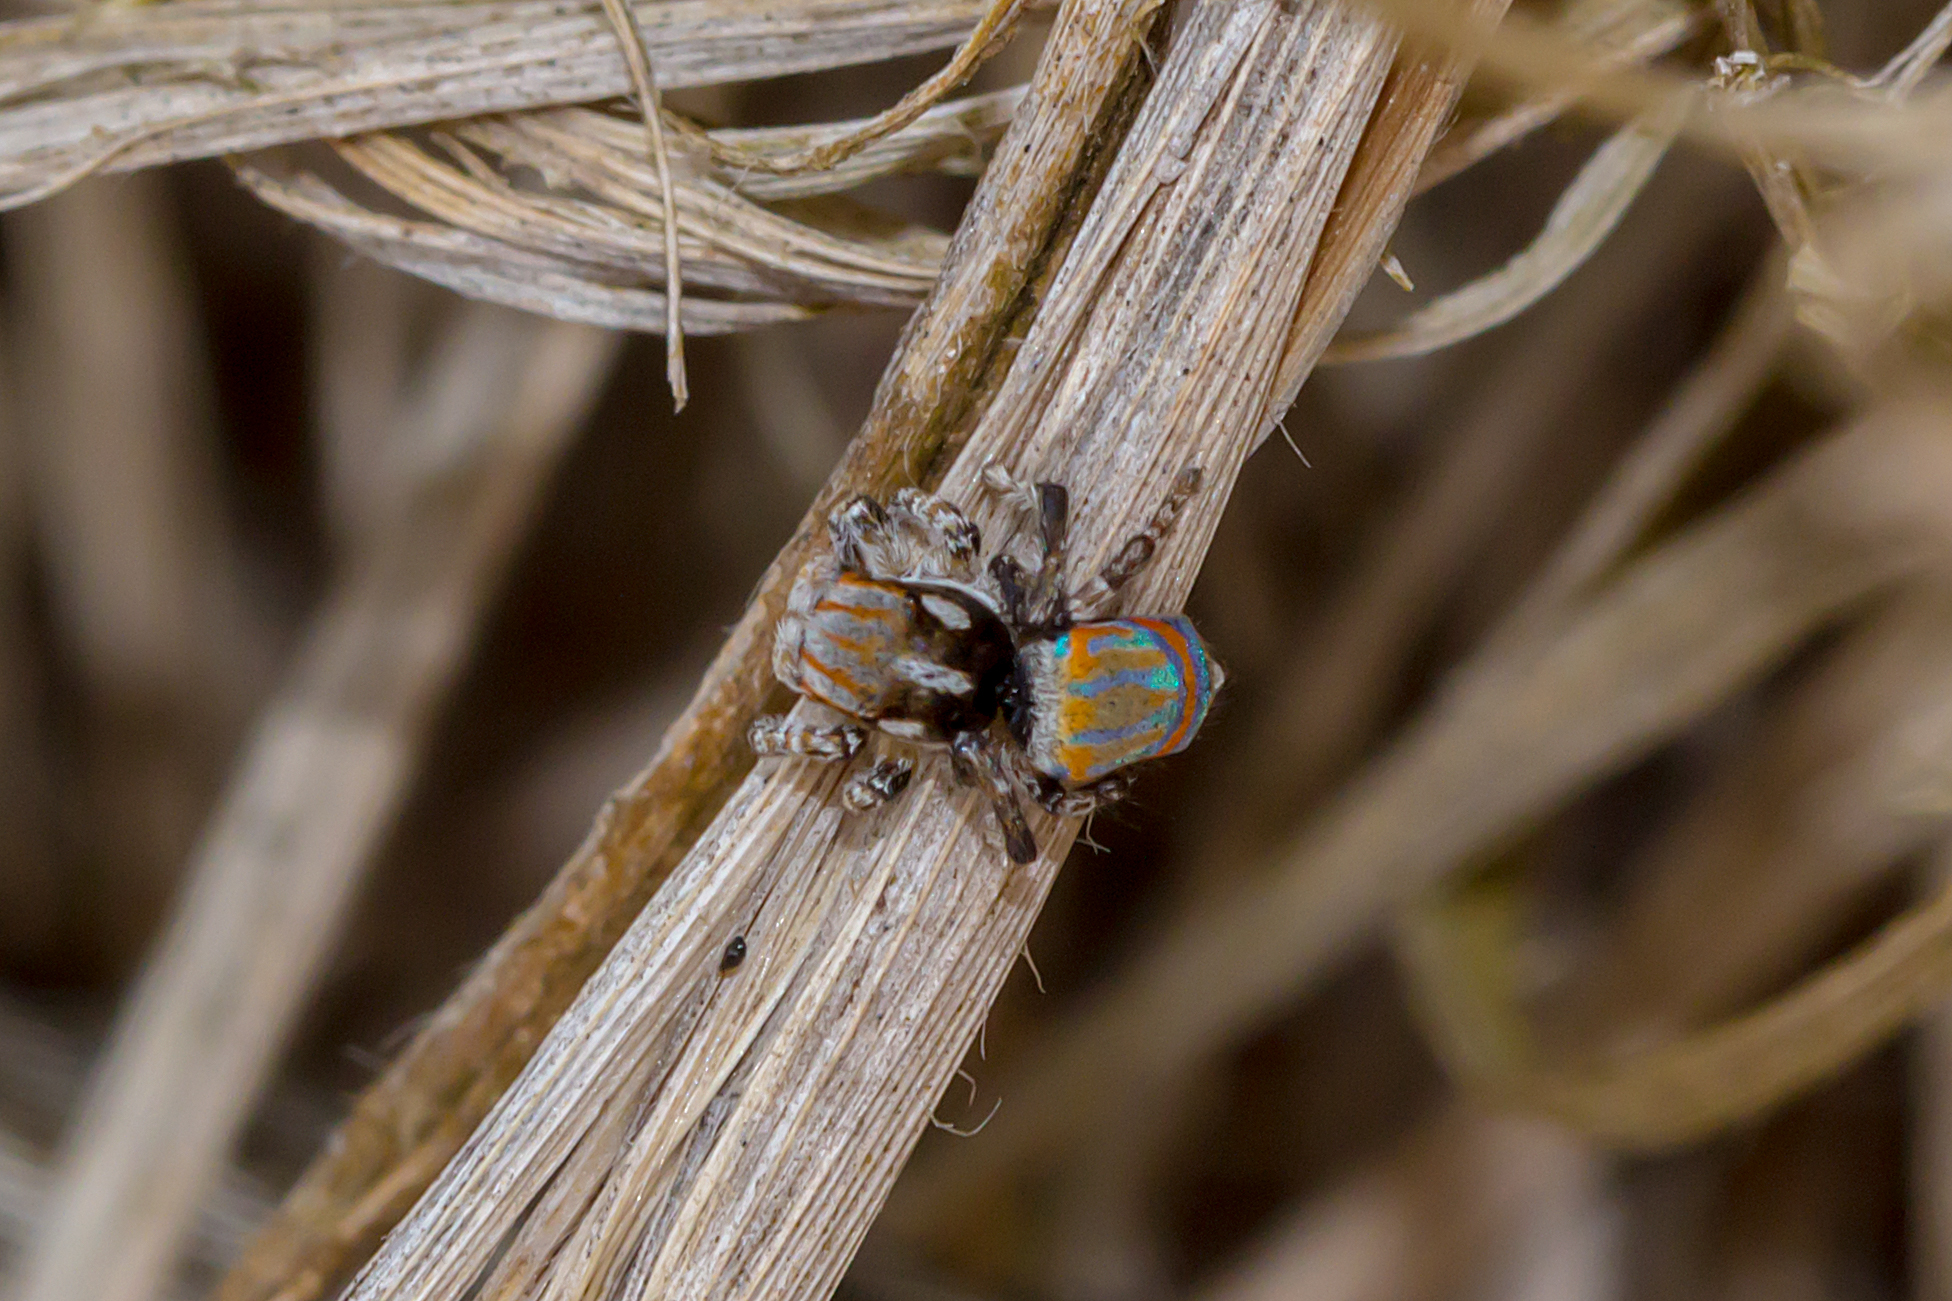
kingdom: Animalia
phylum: Arthropoda
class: Arachnida
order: Araneae
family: Salticidae
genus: Maratus
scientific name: Maratus tasmanicus
